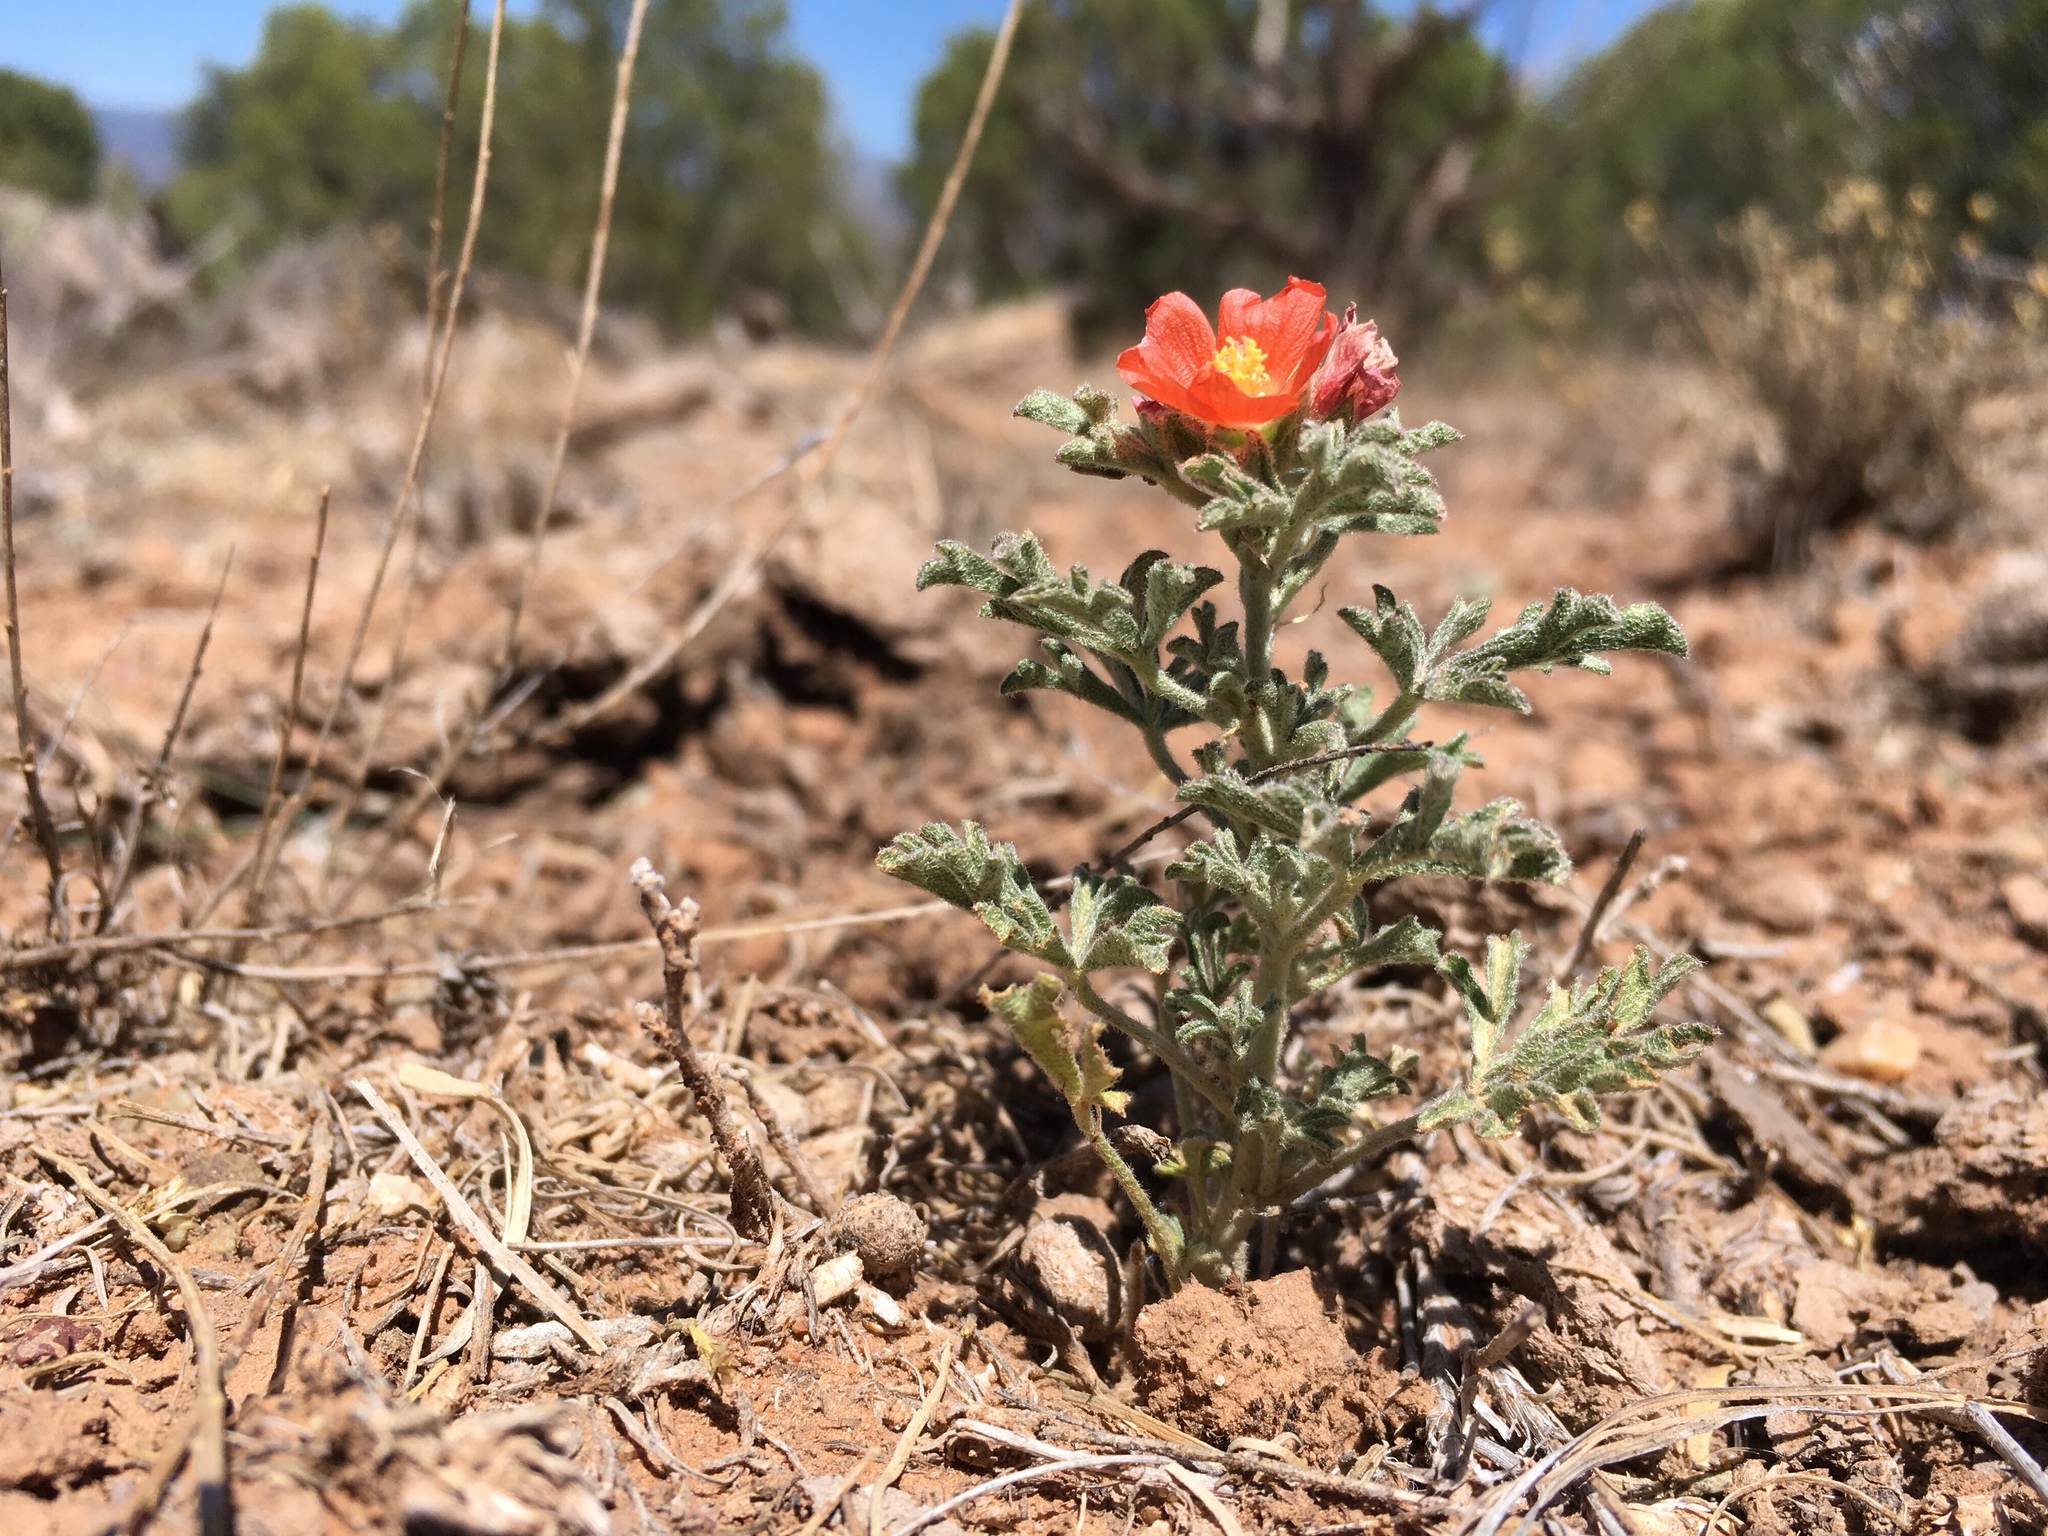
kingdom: Plantae
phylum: Tracheophyta
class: Magnoliopsida
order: Malvales
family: Malvaceae
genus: Sphaeralcea
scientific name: Sphaeralcea coccinea
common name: Moss-rose
